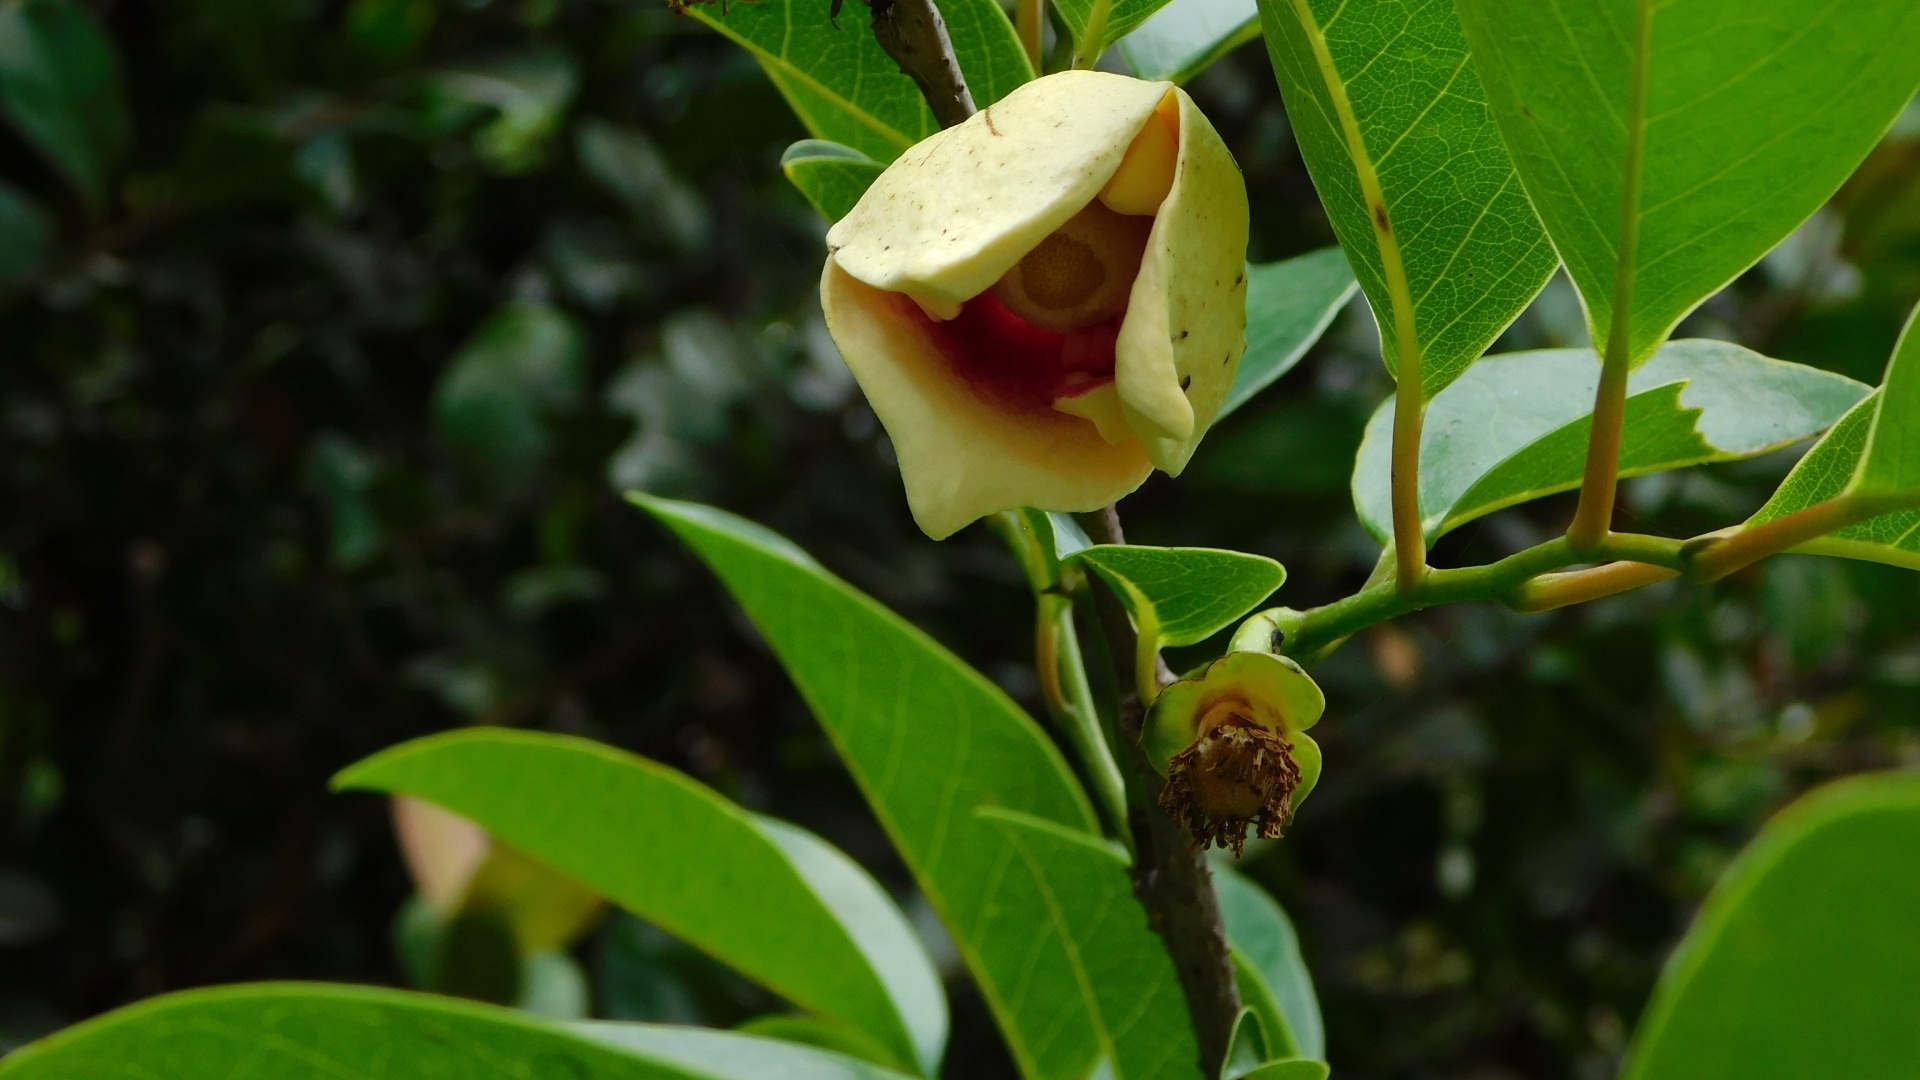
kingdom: Plantae
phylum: Tracheophyta
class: Magnoliopsida
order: Magnoliales
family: Annonaceae
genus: Annona
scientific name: Annona glabra
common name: Monkey apple
